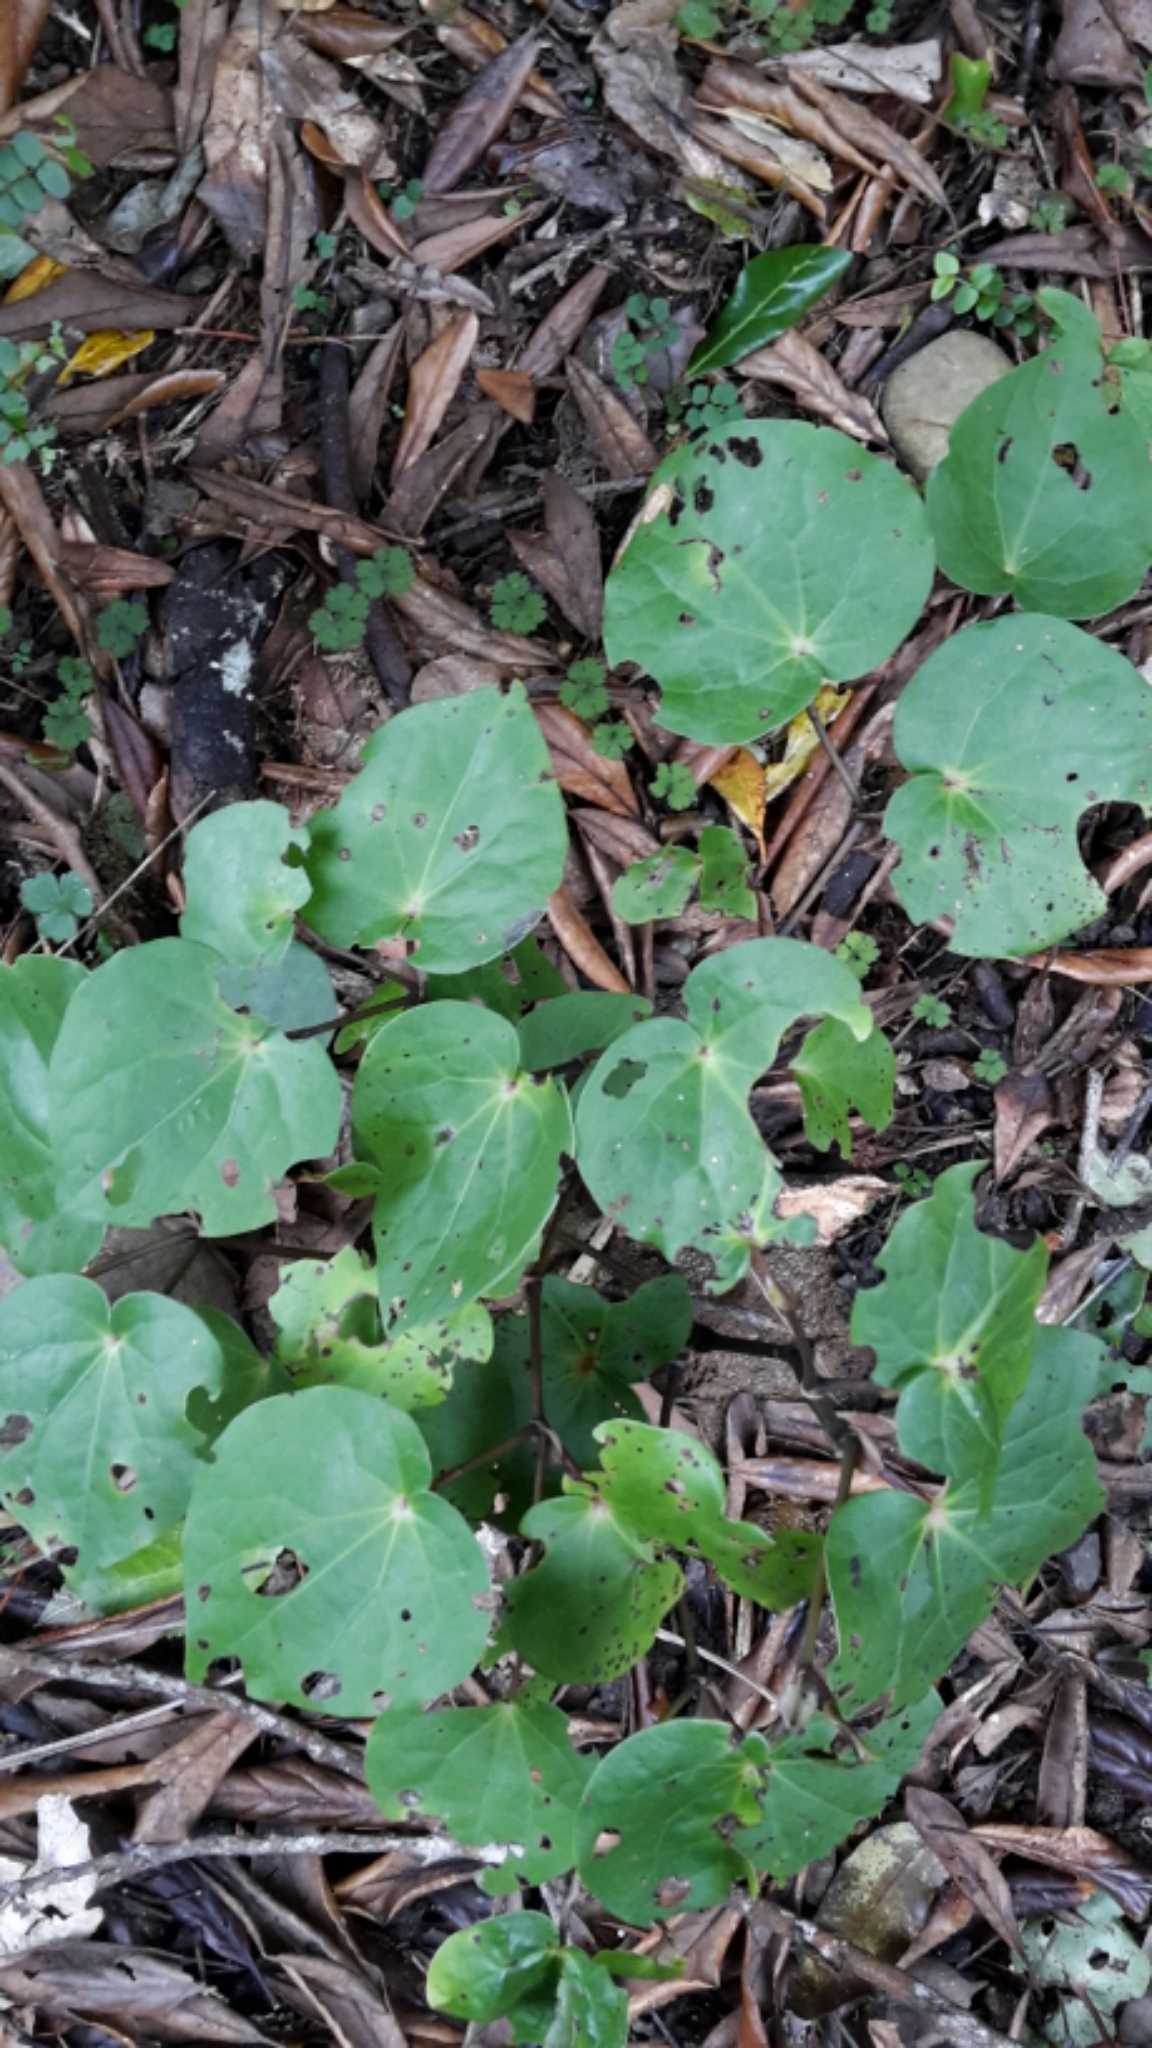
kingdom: Plantae
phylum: Tracheophyta
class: Magnoliopsida
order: Piperales
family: Piperaceae
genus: Macropiper
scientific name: Macropiper excelsum
